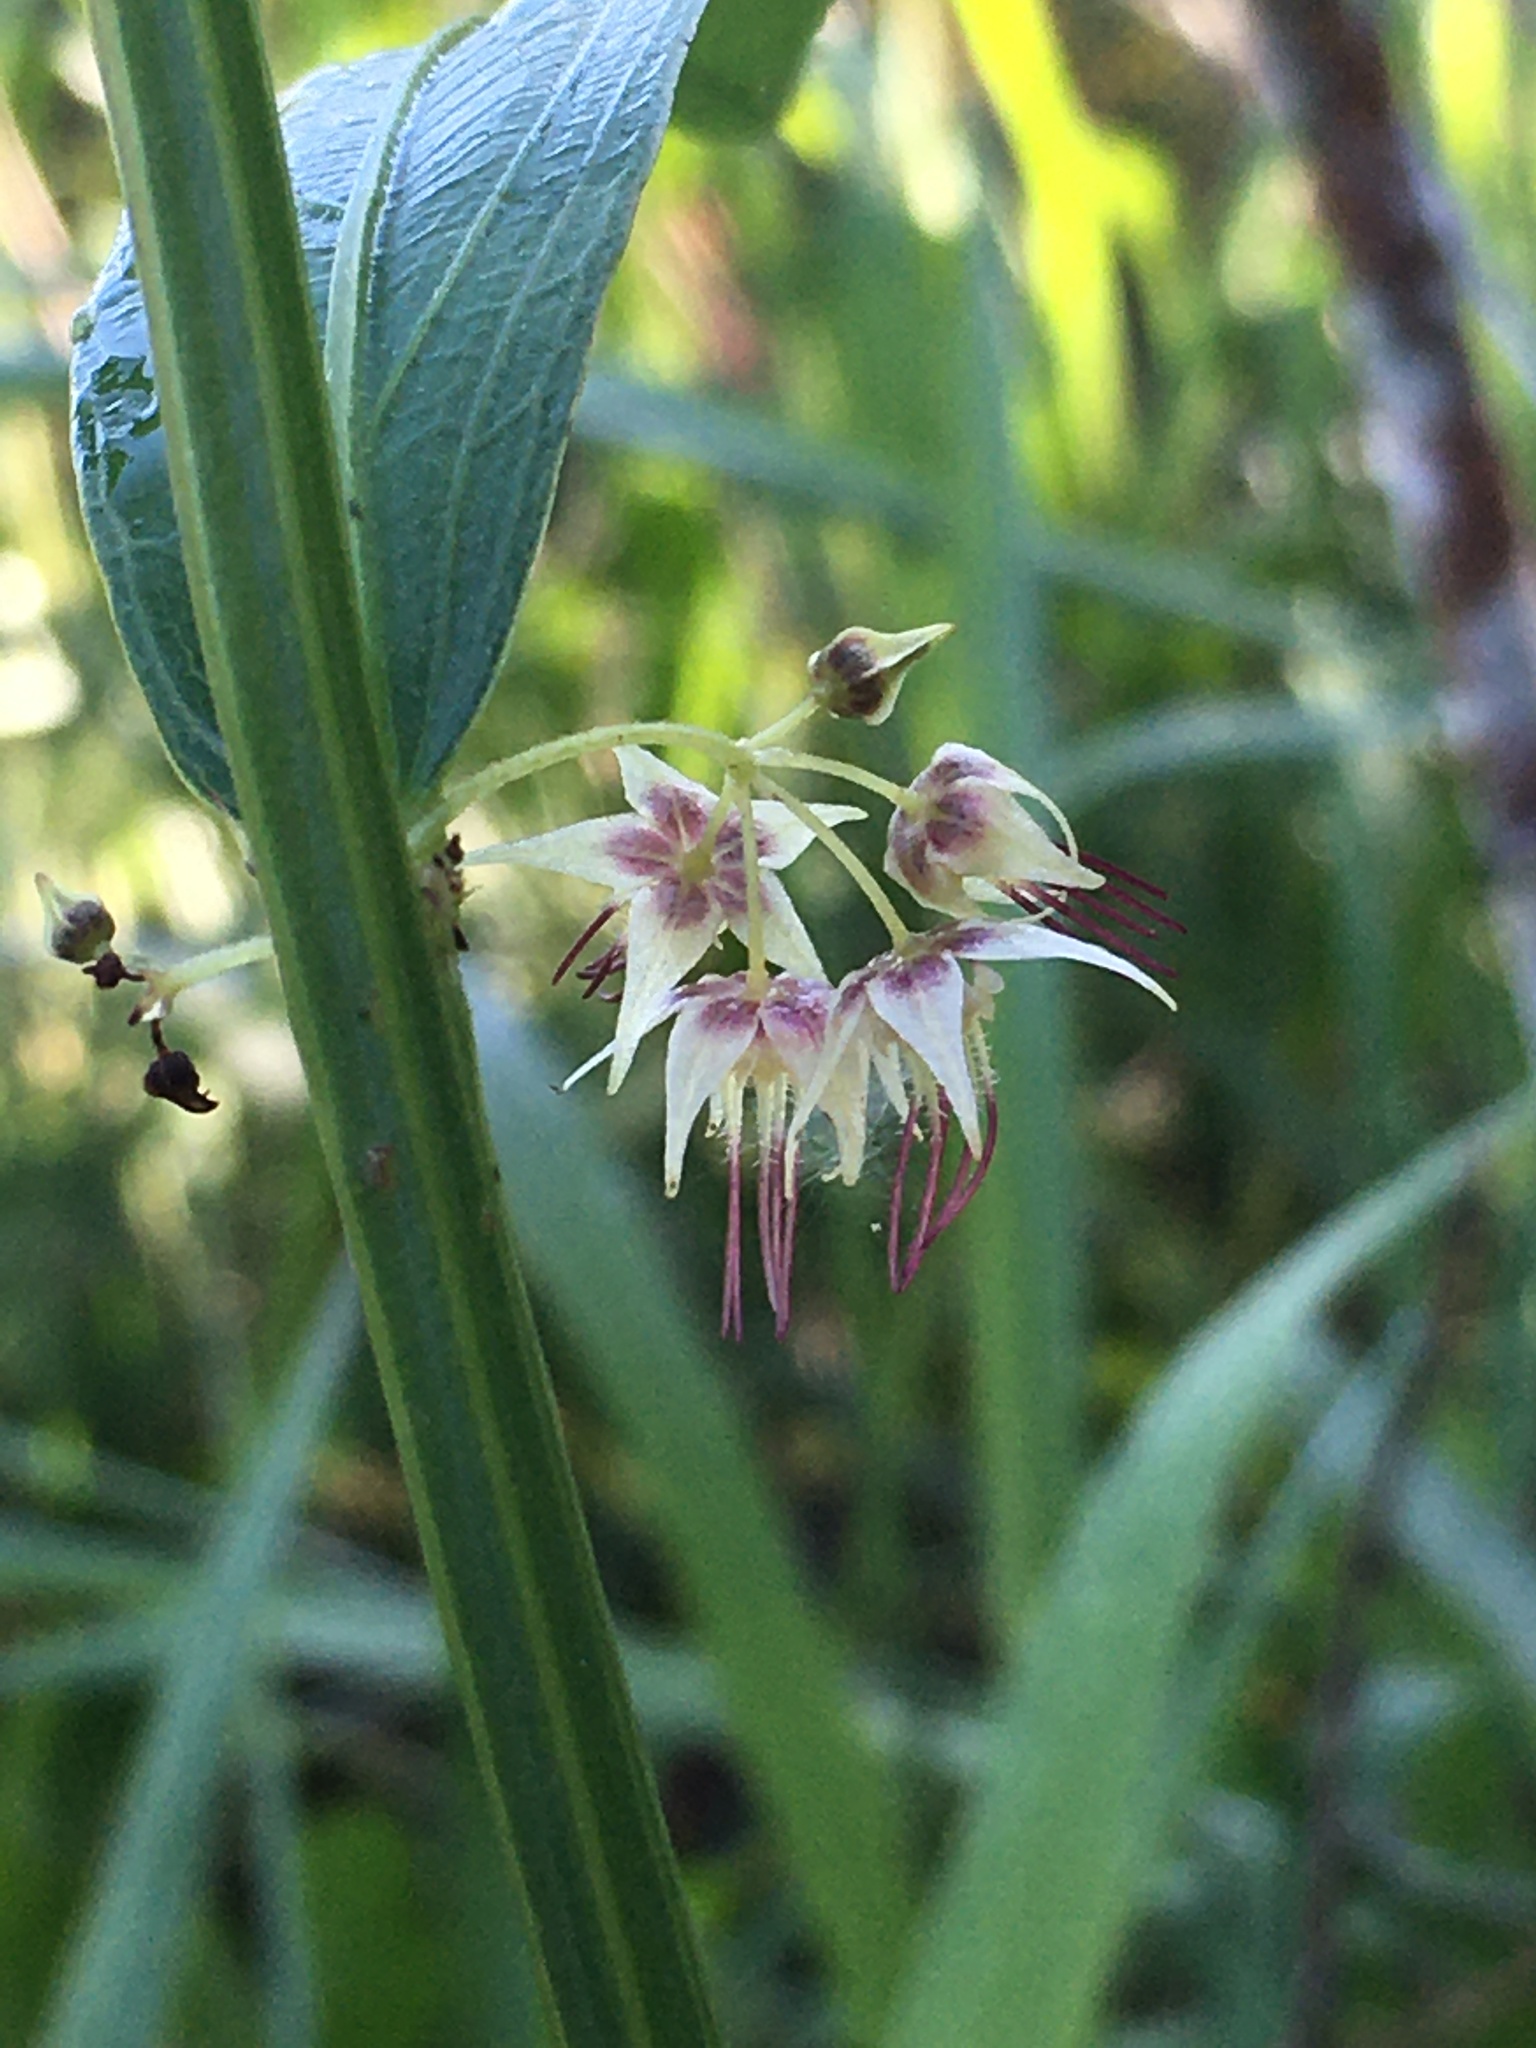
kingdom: Plantae
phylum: Tracheophyta
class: Magnoliopsida
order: Malvales
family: Malvaceae
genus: Byttneria
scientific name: Byttneria pedersenii
